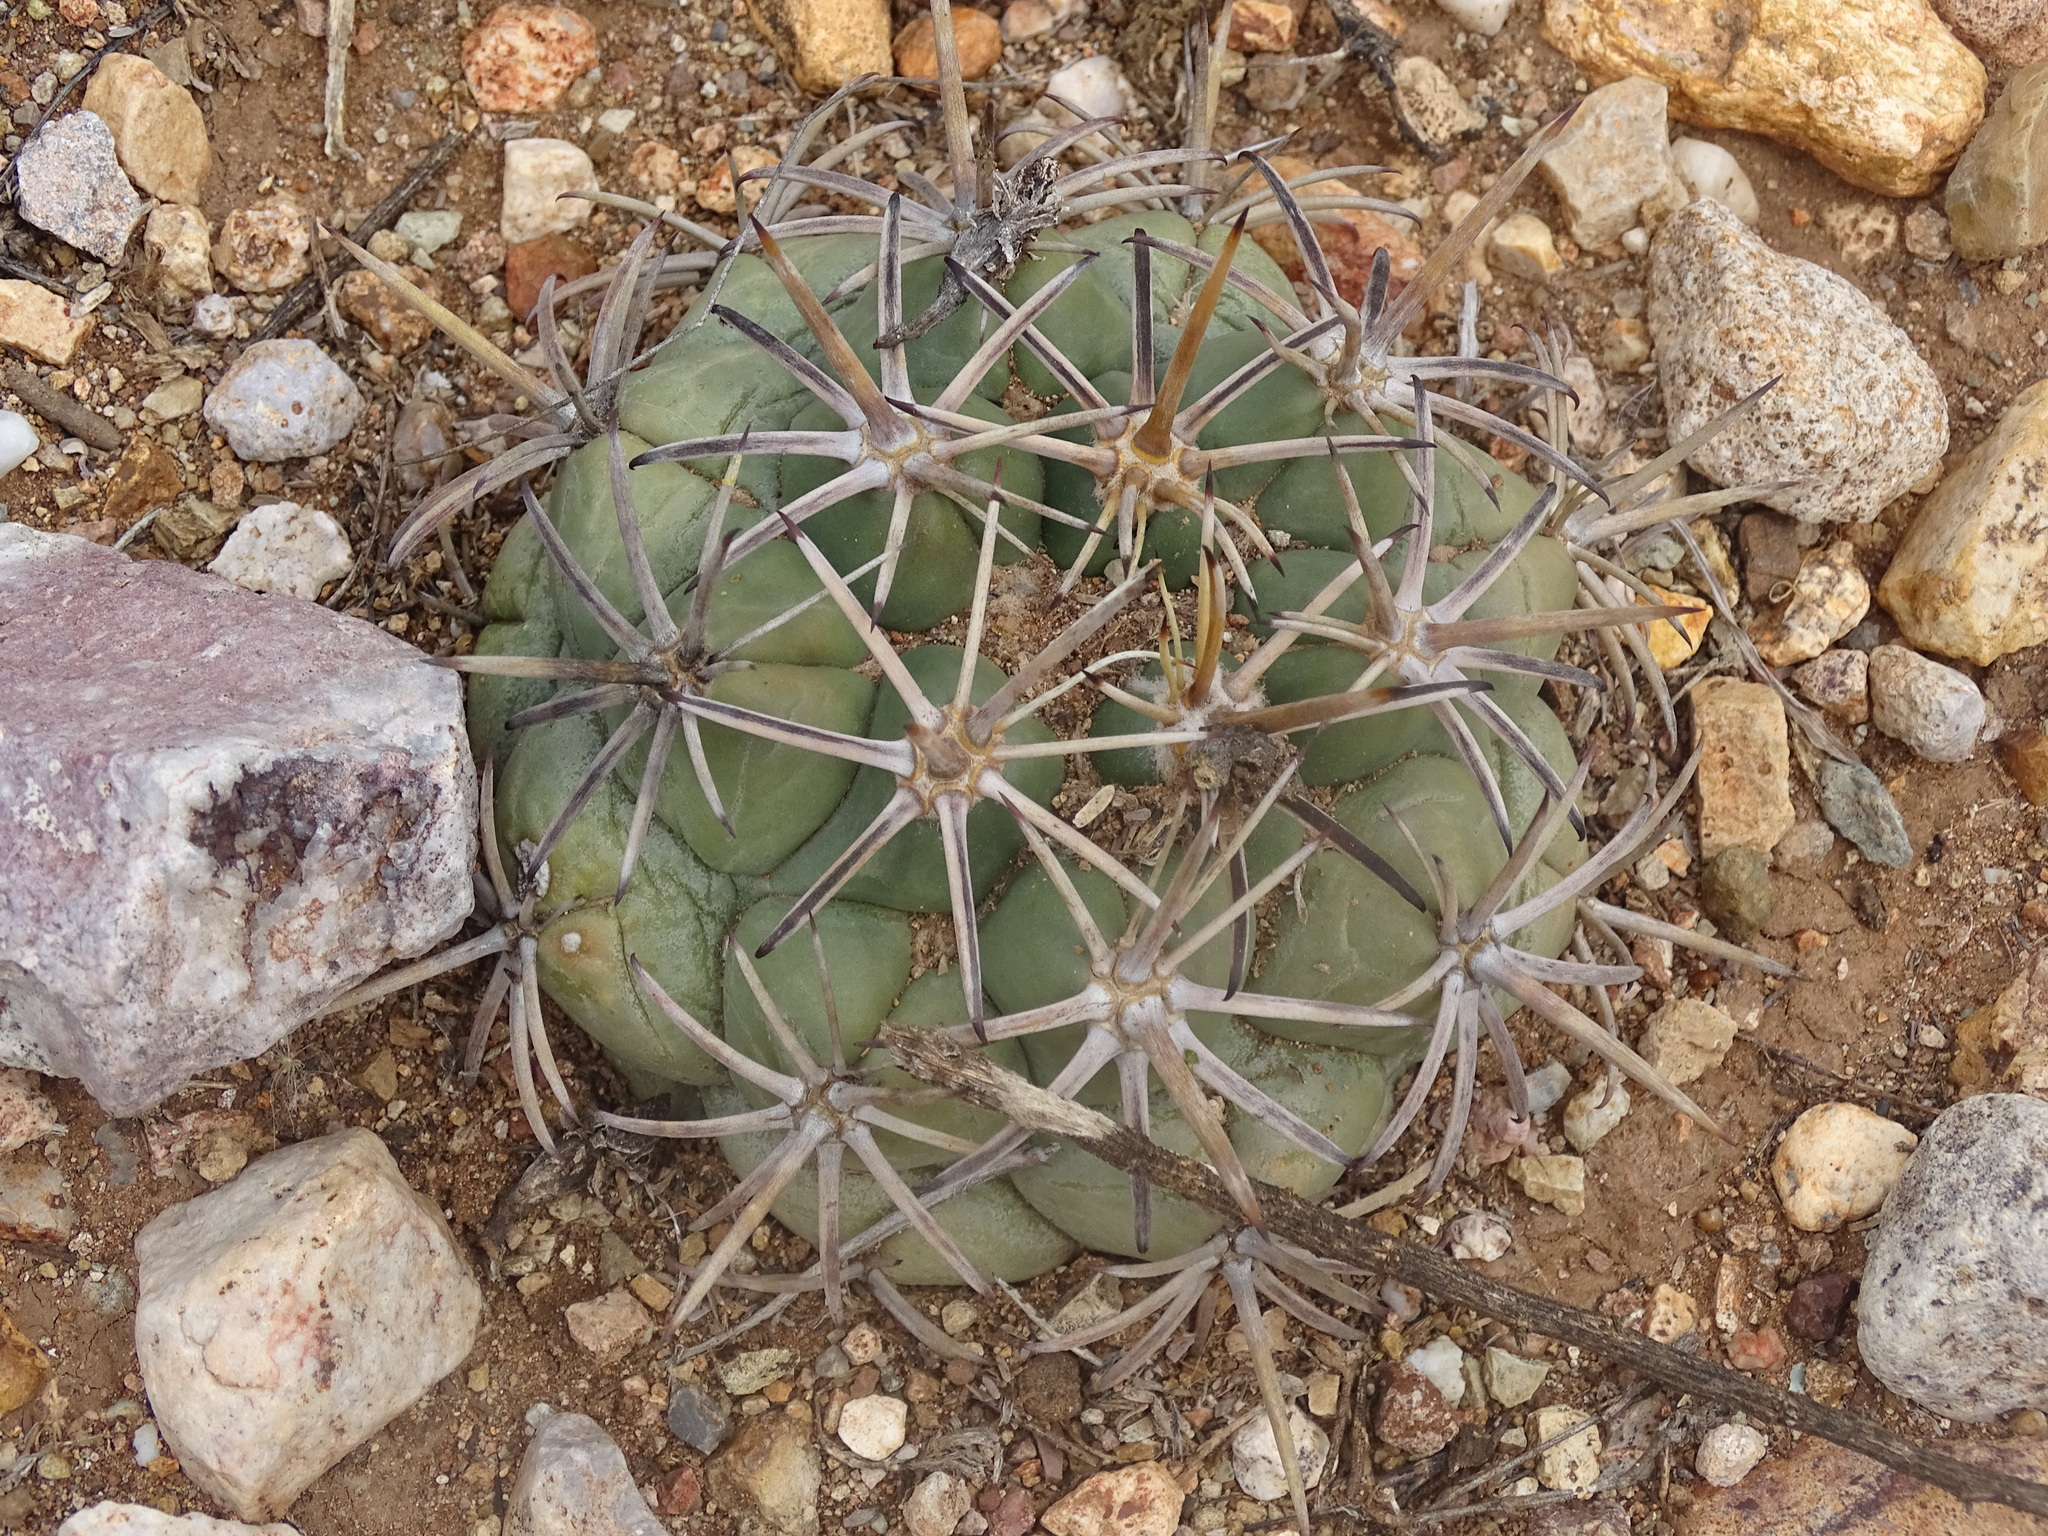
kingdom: Plantae
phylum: Tracheophyta
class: Magnoliopsida
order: Caryophyllales
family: Cactaceae
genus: Coryphantha
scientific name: Coryphantha poselgeriana
